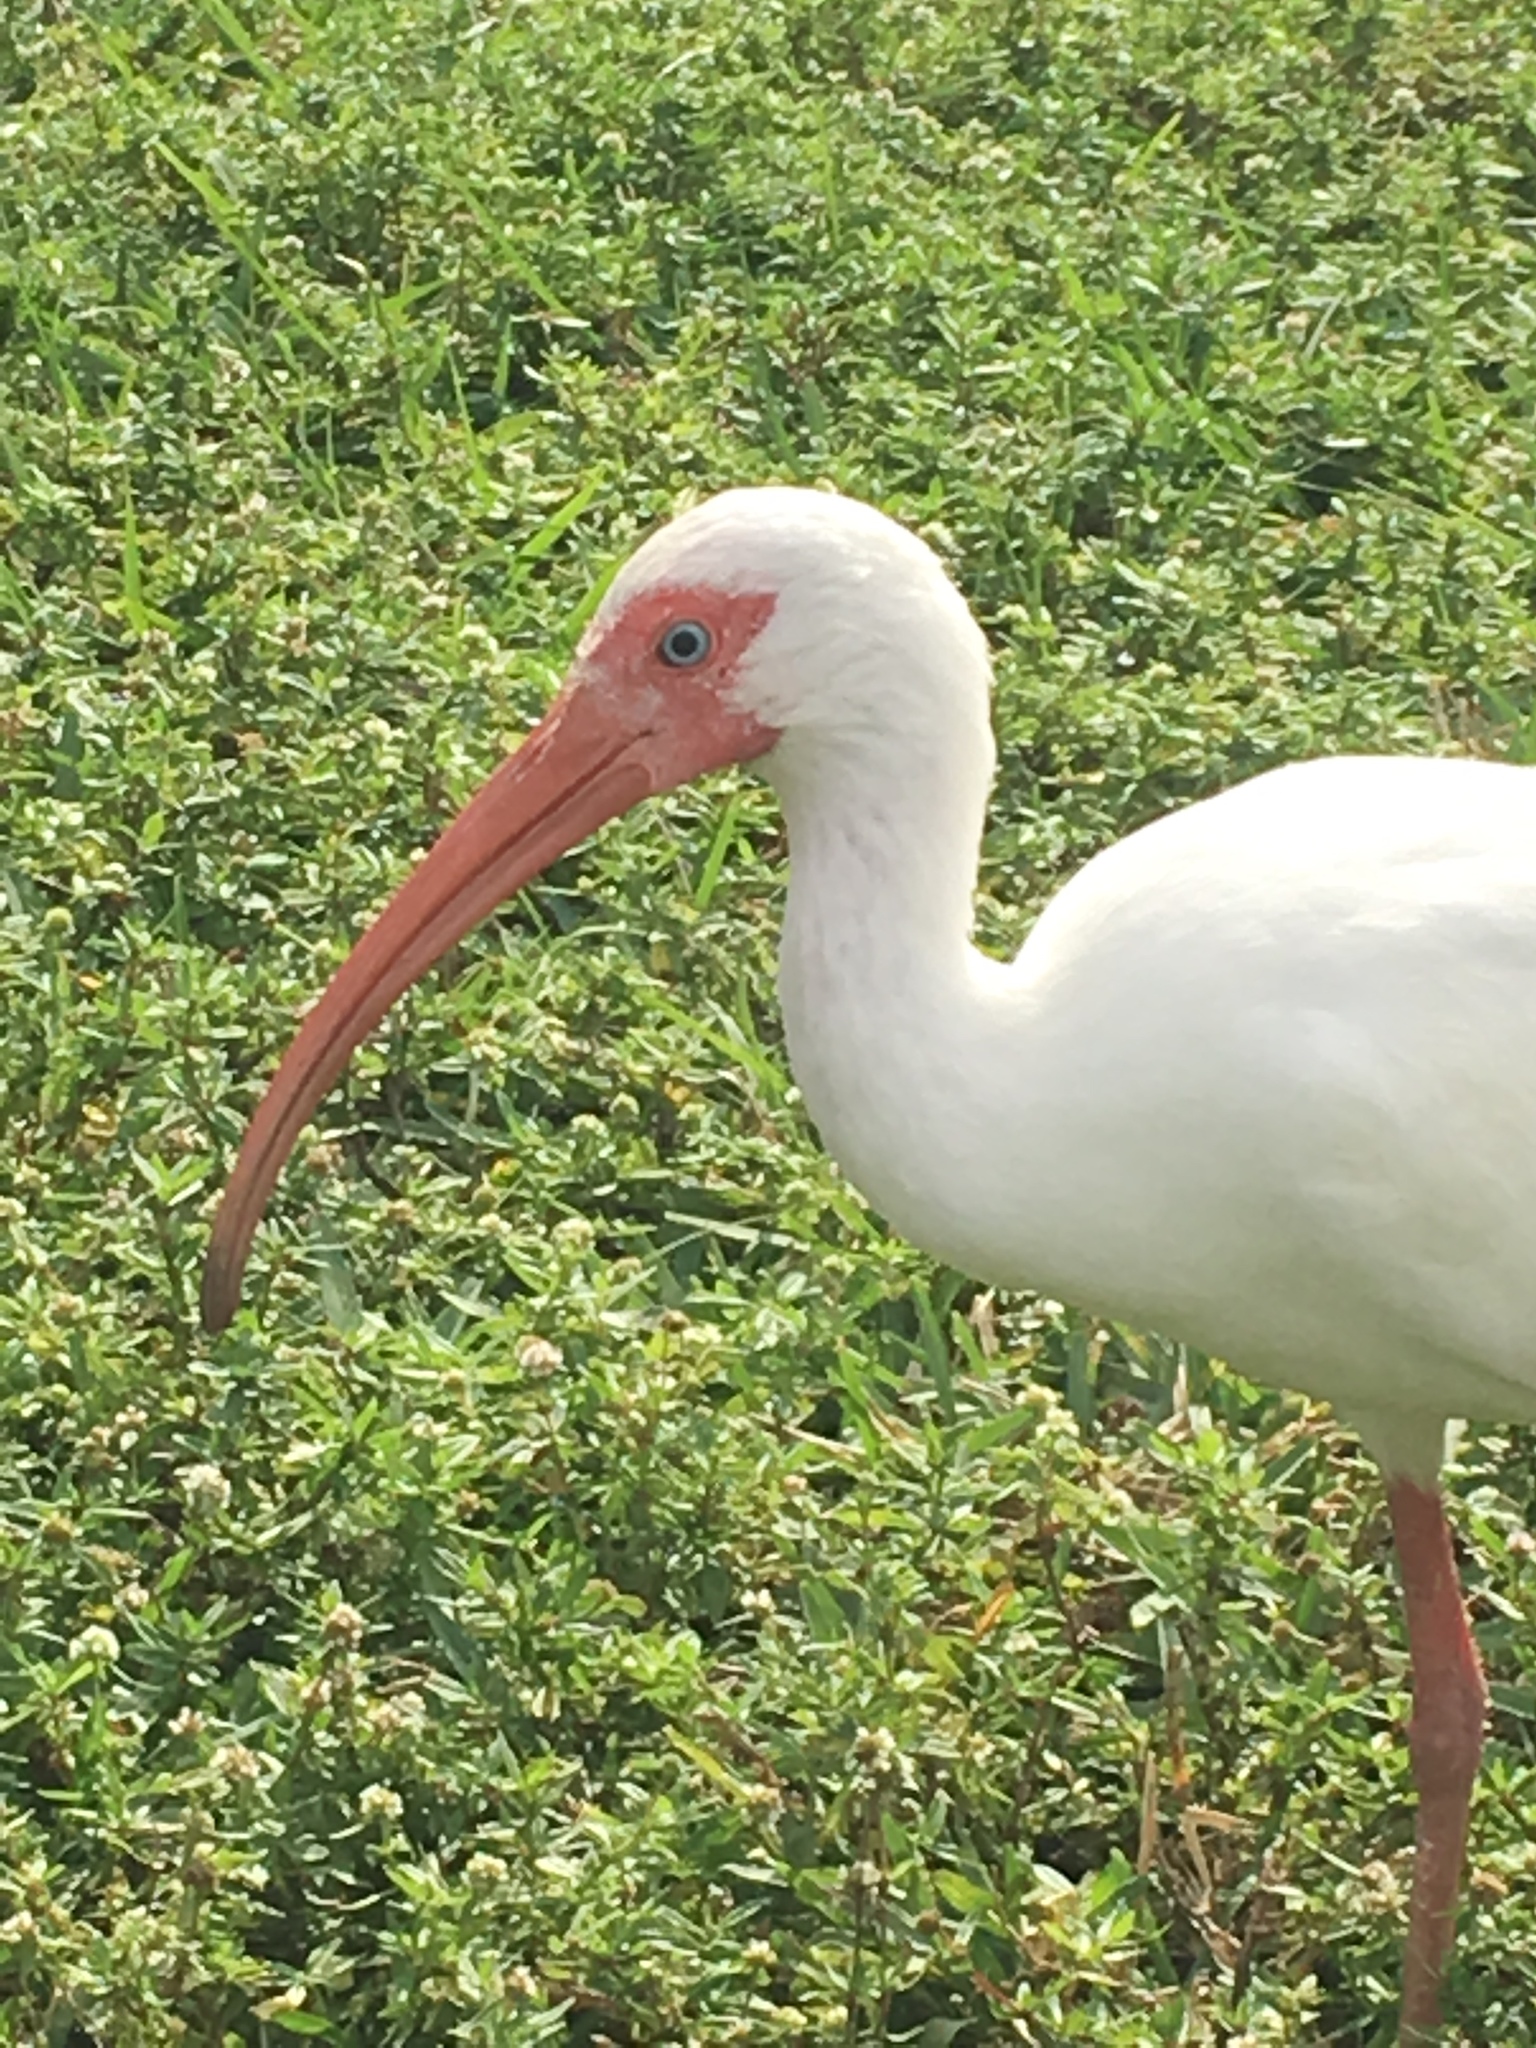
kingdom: Animalia
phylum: Chordata
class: Aves
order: Pelecaniformes
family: Threskiornithidae
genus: Eudocimus
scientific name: Eudocimus albus
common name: White ibis
